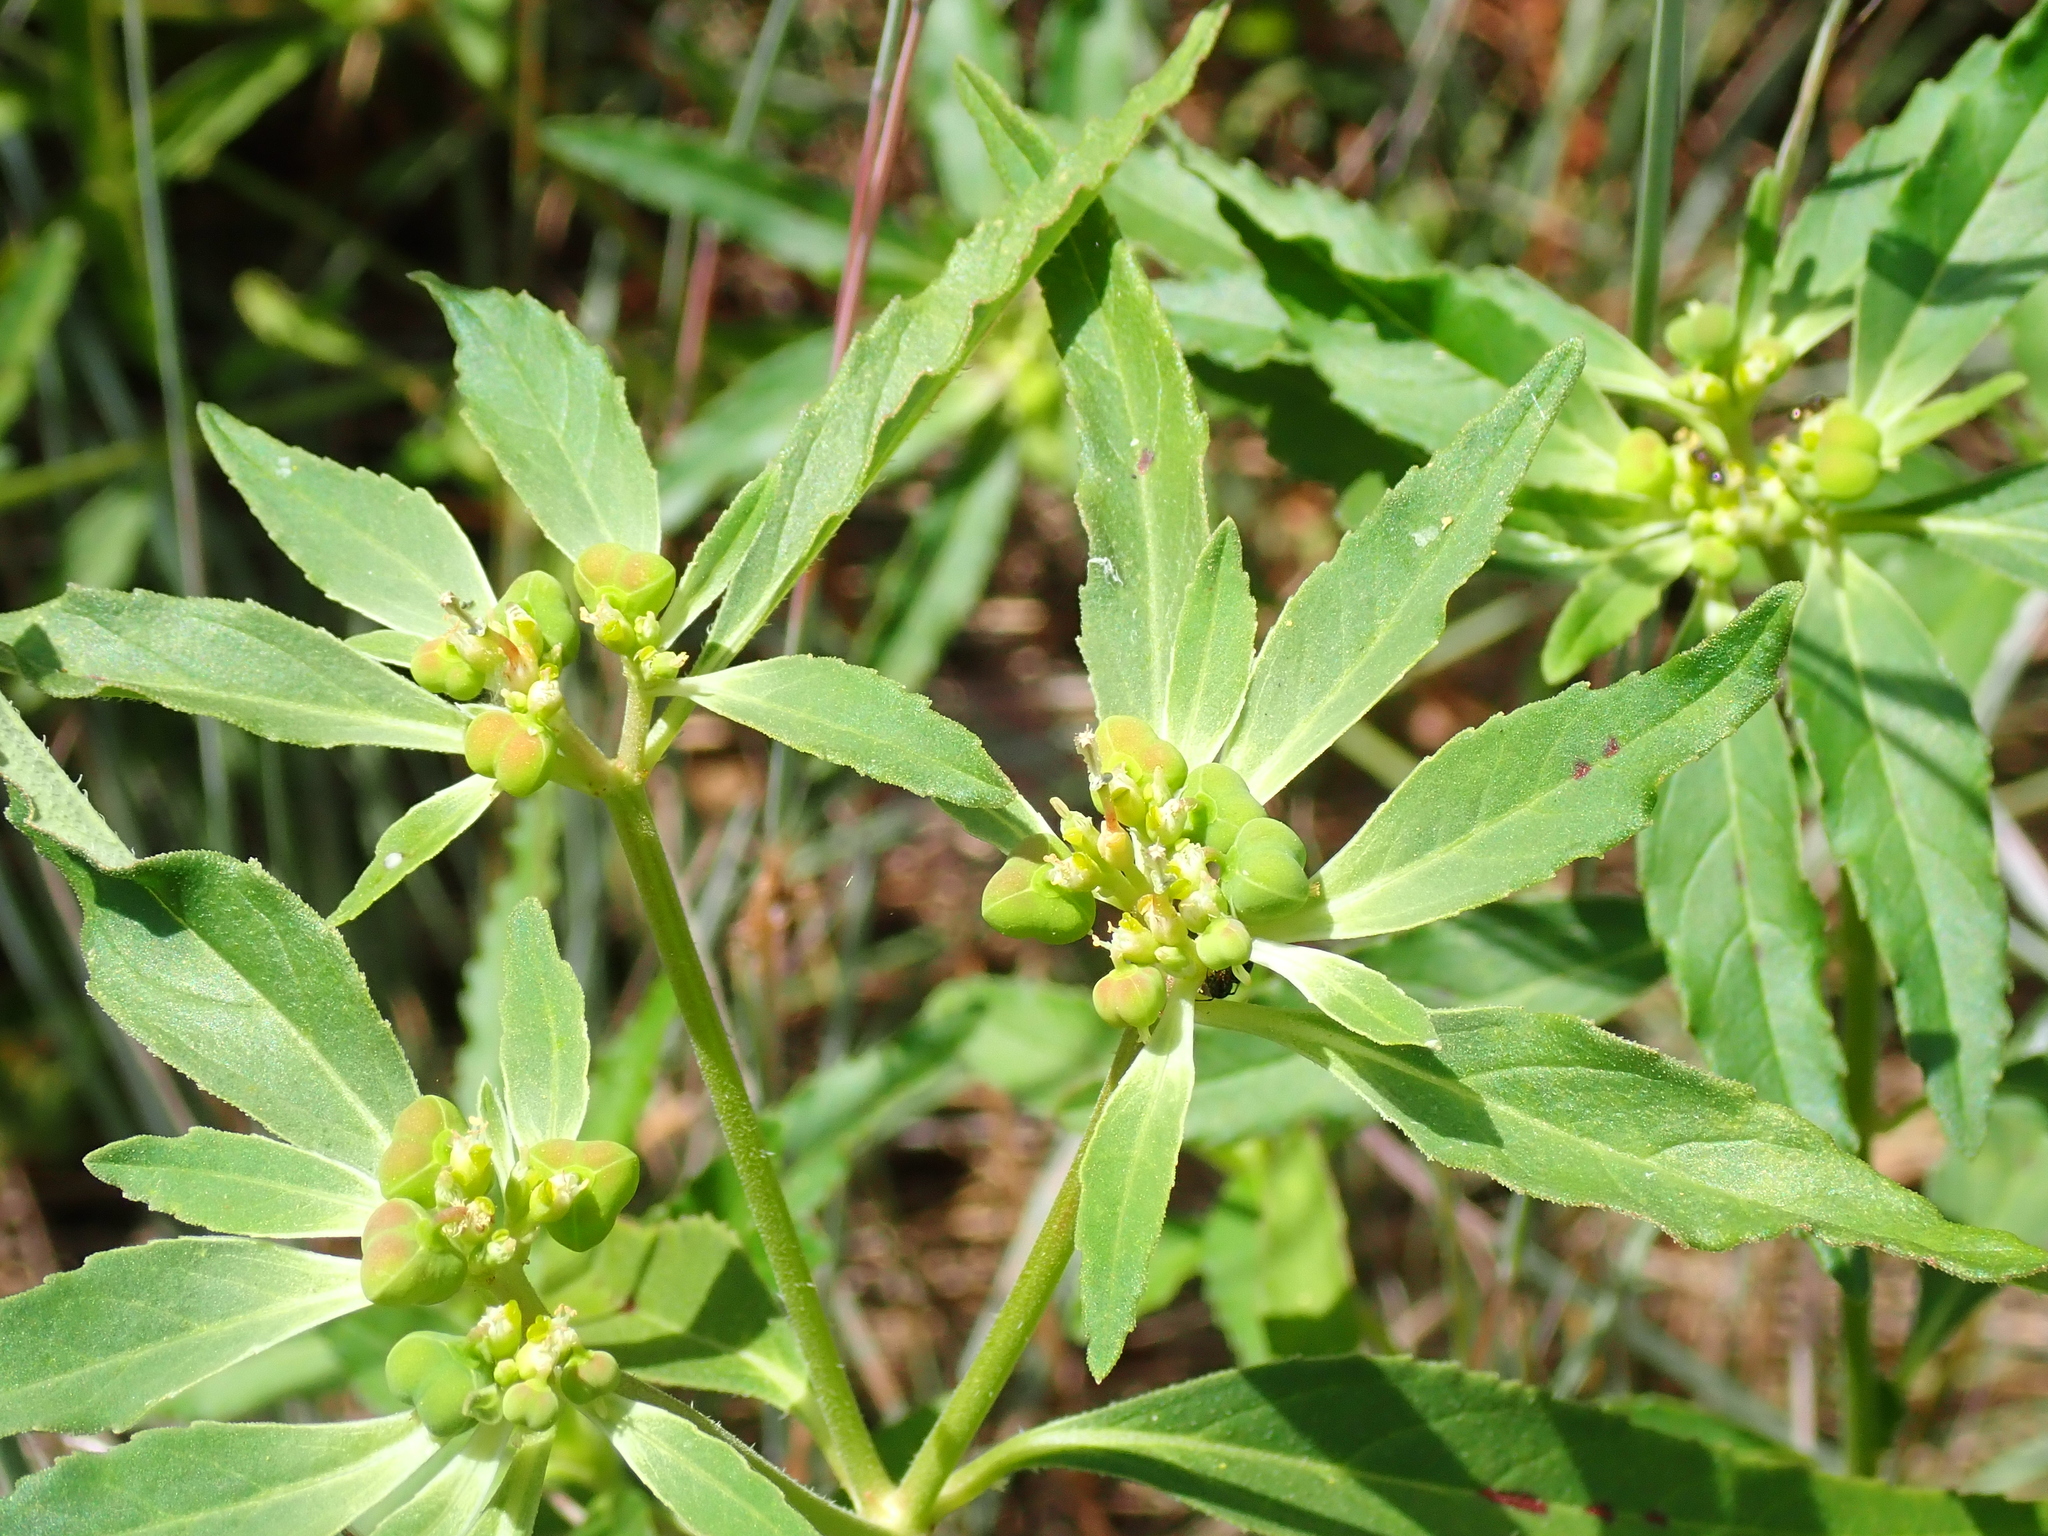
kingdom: Plantae
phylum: Tracheophyta
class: Magnoliopsida
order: Malpighiales
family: Euphorbiaceae
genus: Euphorbia
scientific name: Euphorbia davidii
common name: David's spurge
